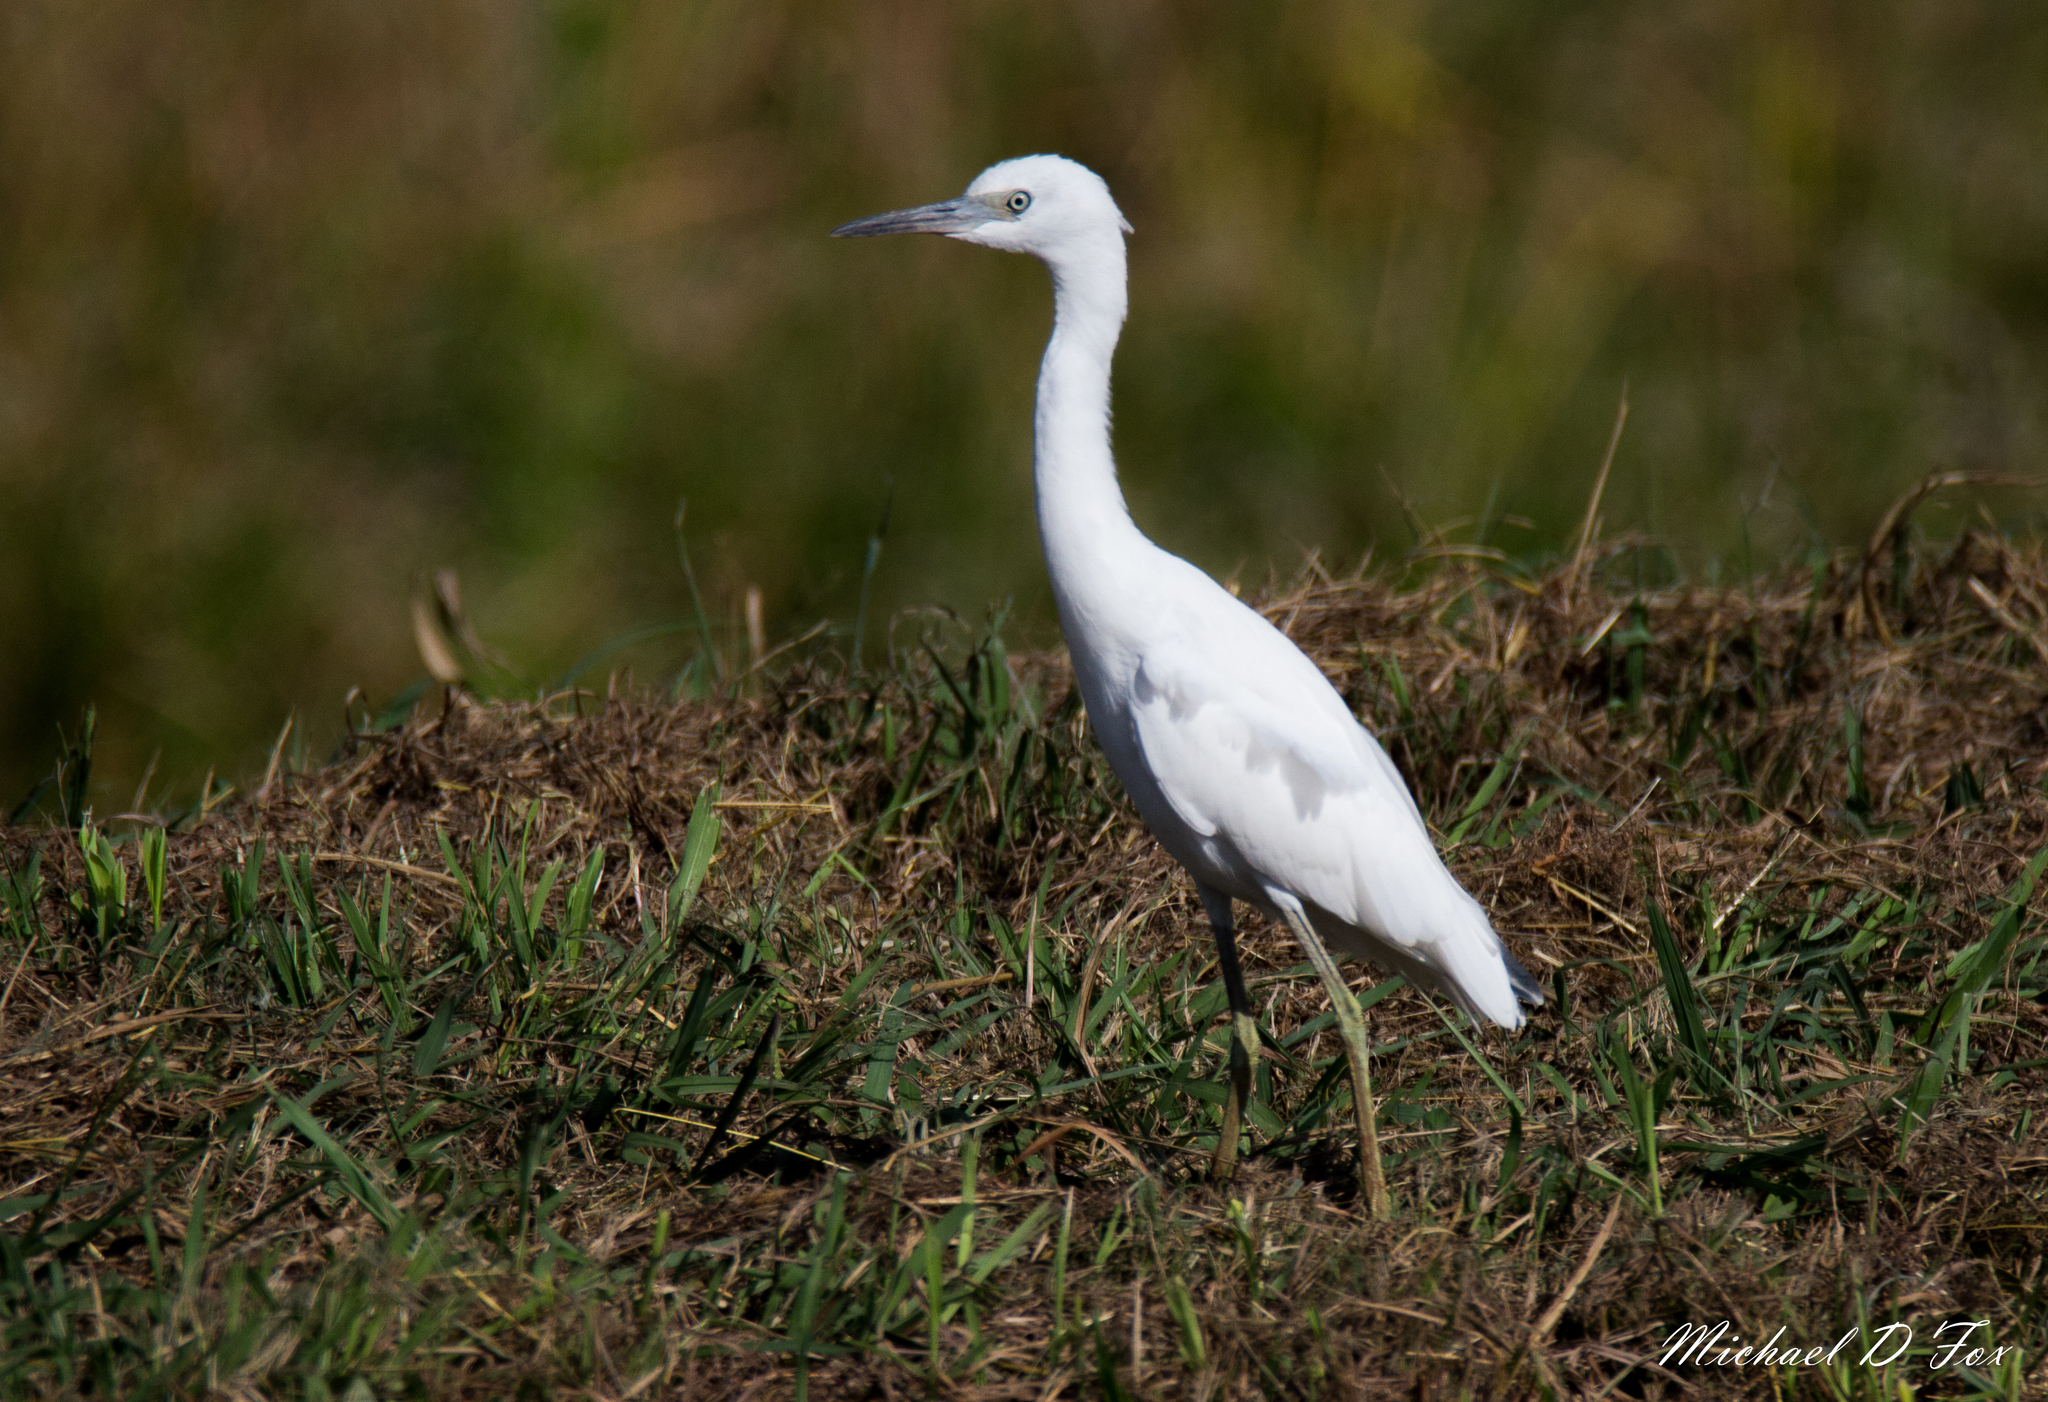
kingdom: Animalia
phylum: Chordata
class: Aves
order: Pelecaniformes
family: Ardeidae
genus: Egretta
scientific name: Egretta caerulea
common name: Little blue heron
